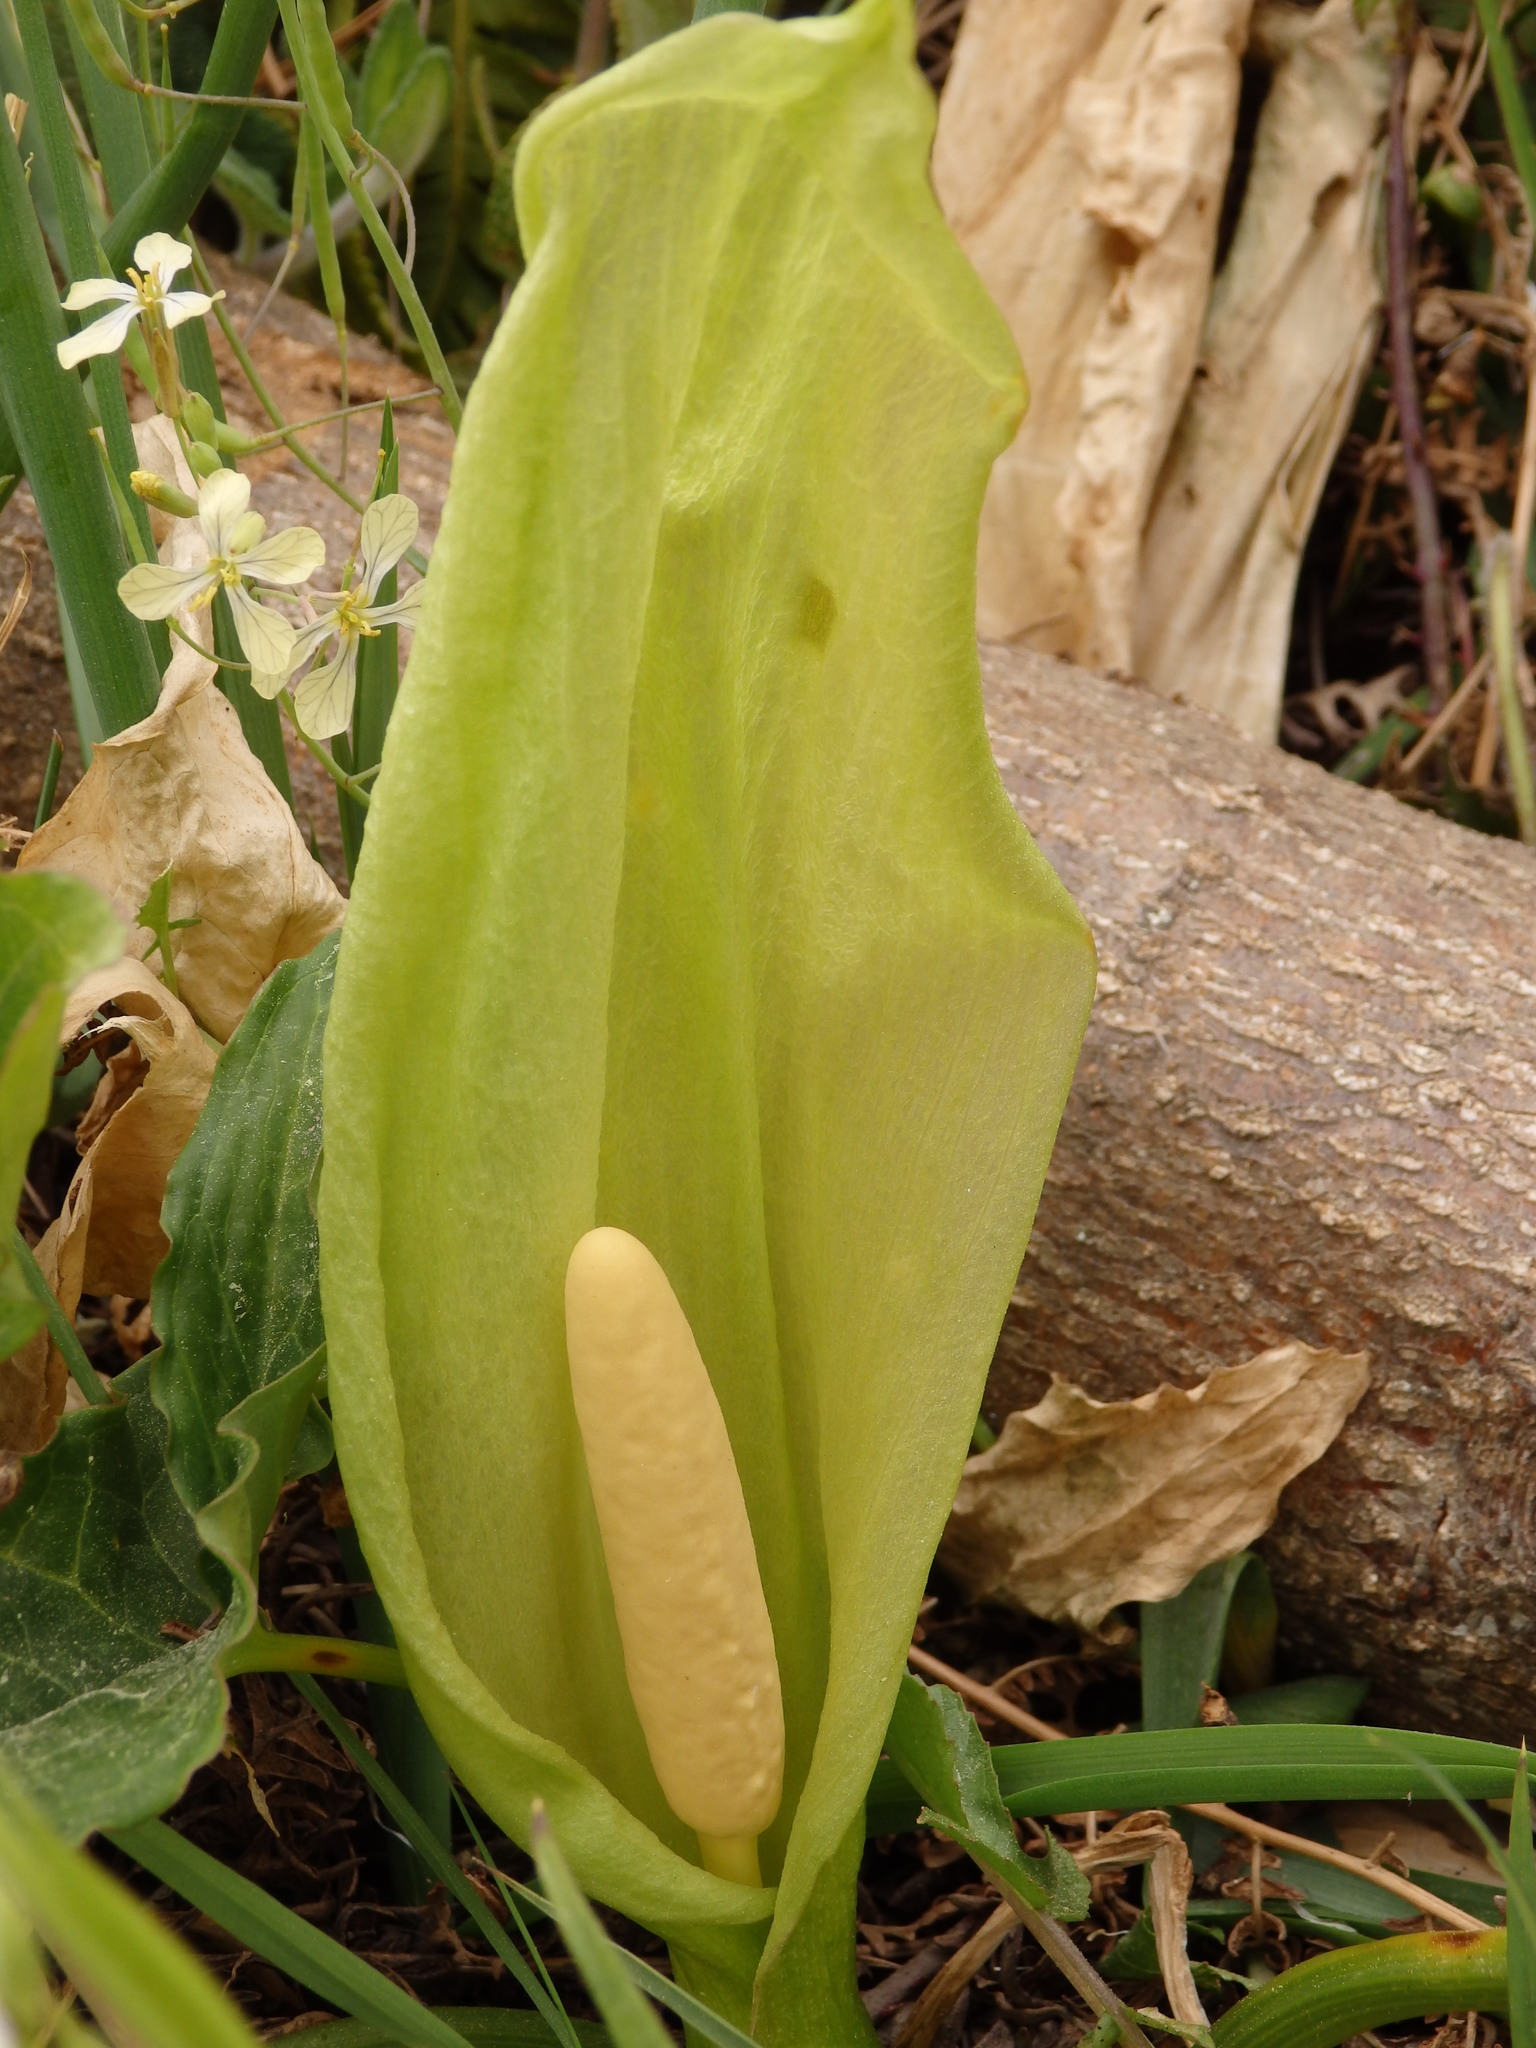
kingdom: Plantae
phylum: Tracheophyta
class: Liliopsida
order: Alismatales
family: Araceae
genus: Arum
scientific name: Arum italicum
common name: Italian lords-and-ladies
